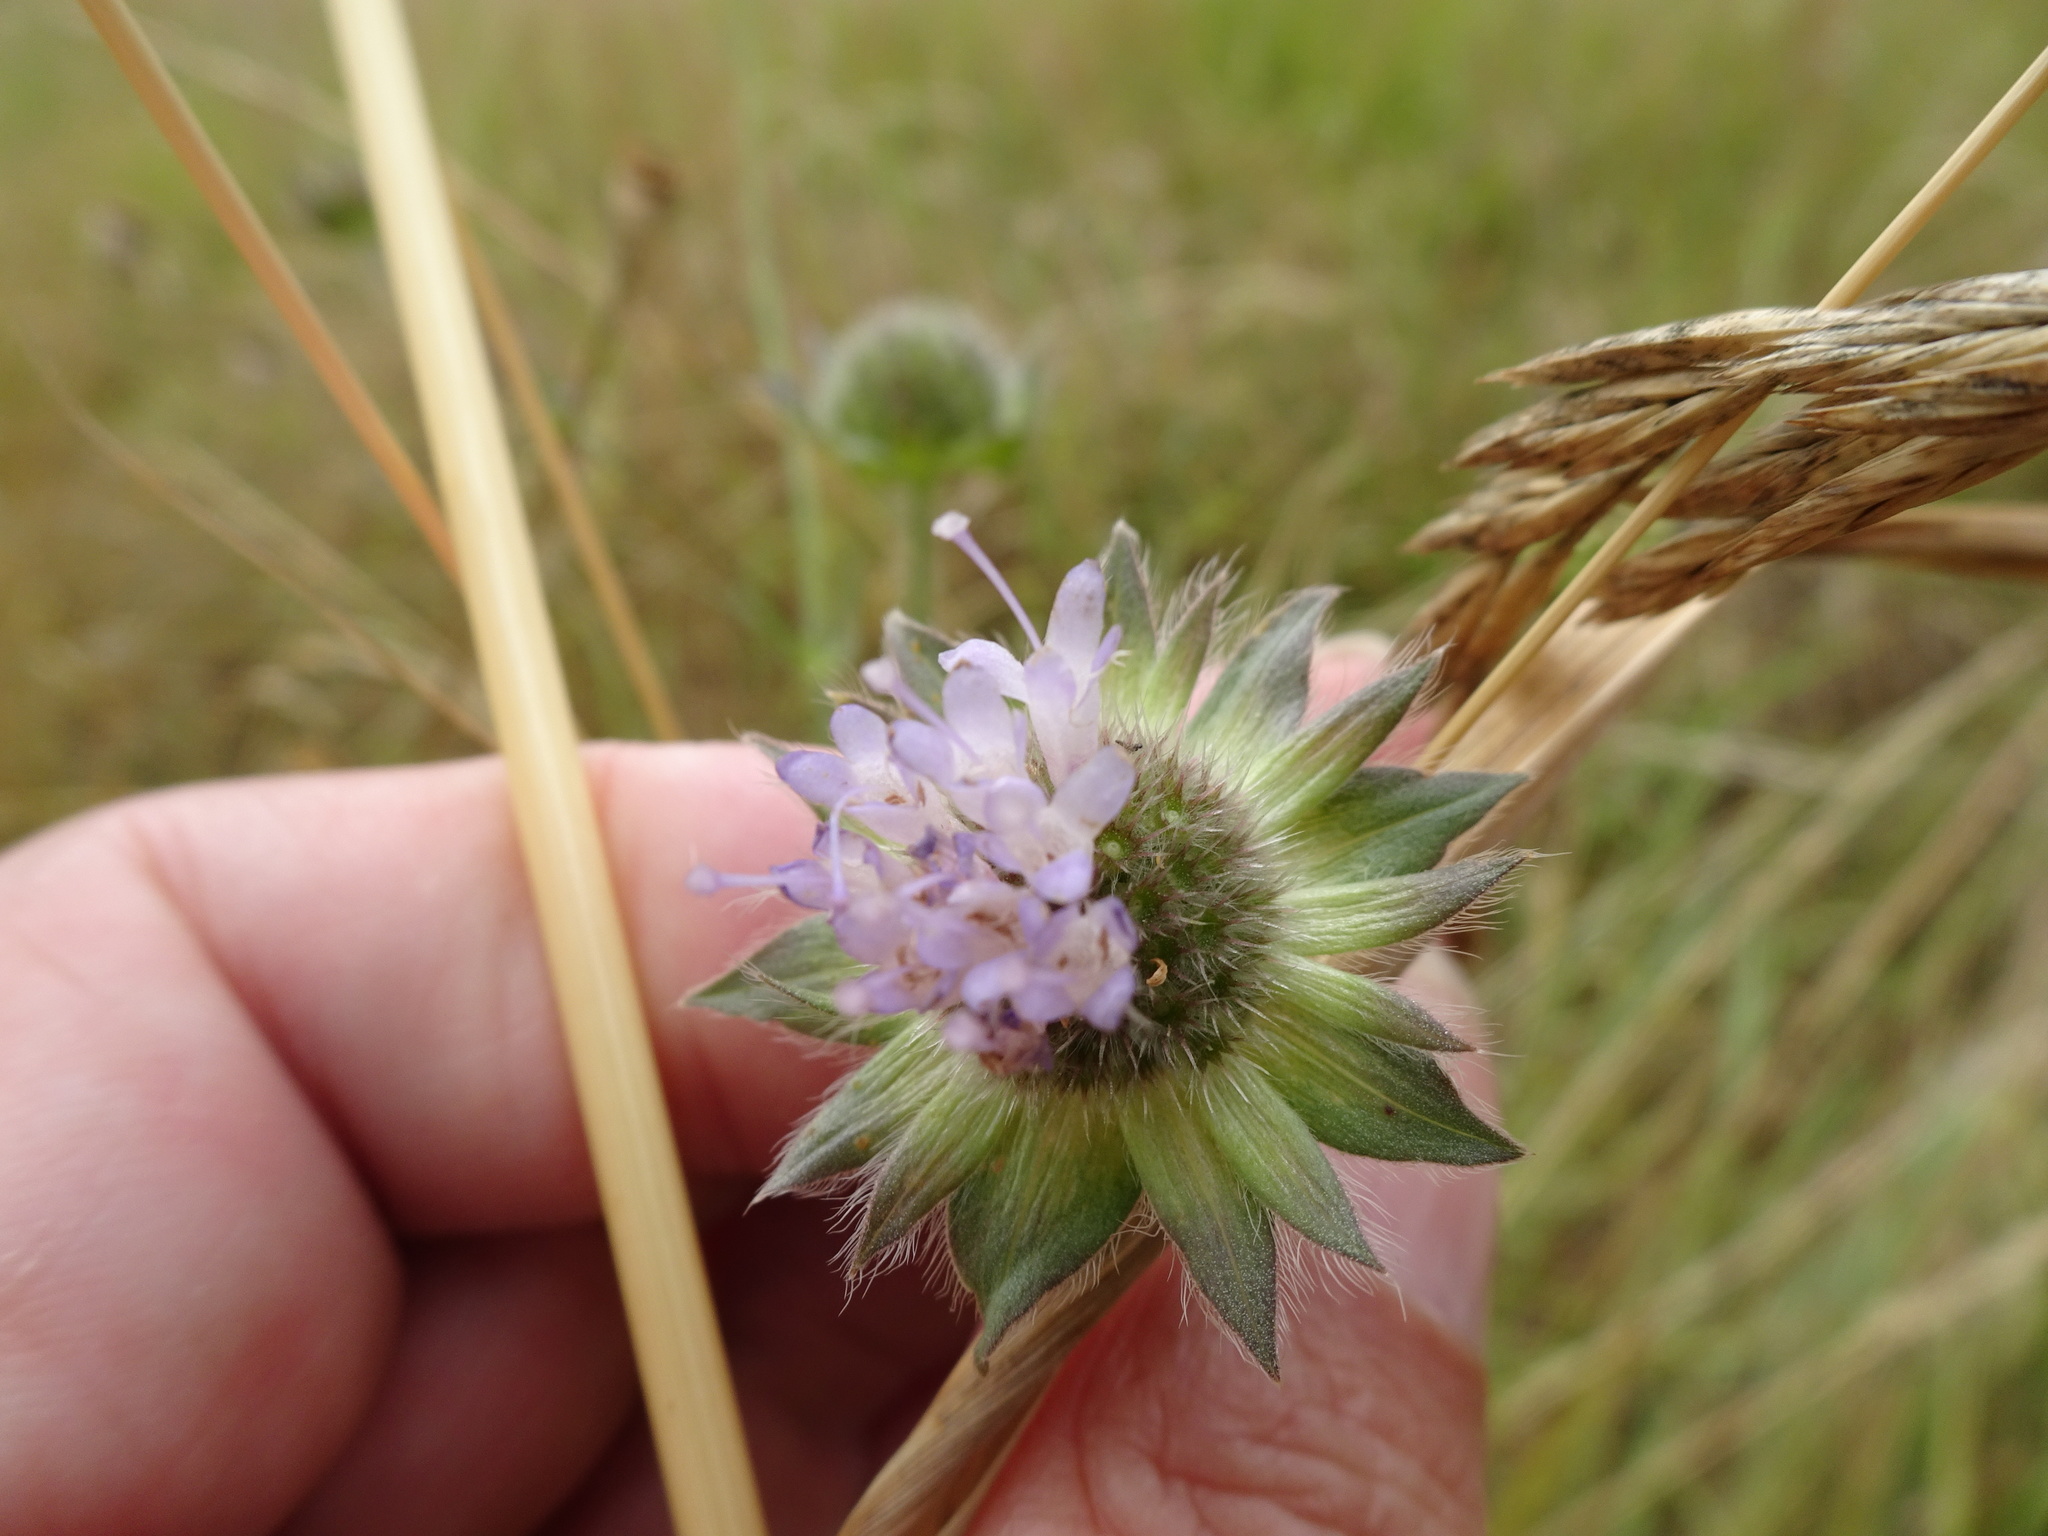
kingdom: Plantae
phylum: Tracheophyta
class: Magnoliopsida
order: Dipsacales
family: Caprifoliaceae
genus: Knautia
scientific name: Knautia arvensis
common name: Field scabiosa
